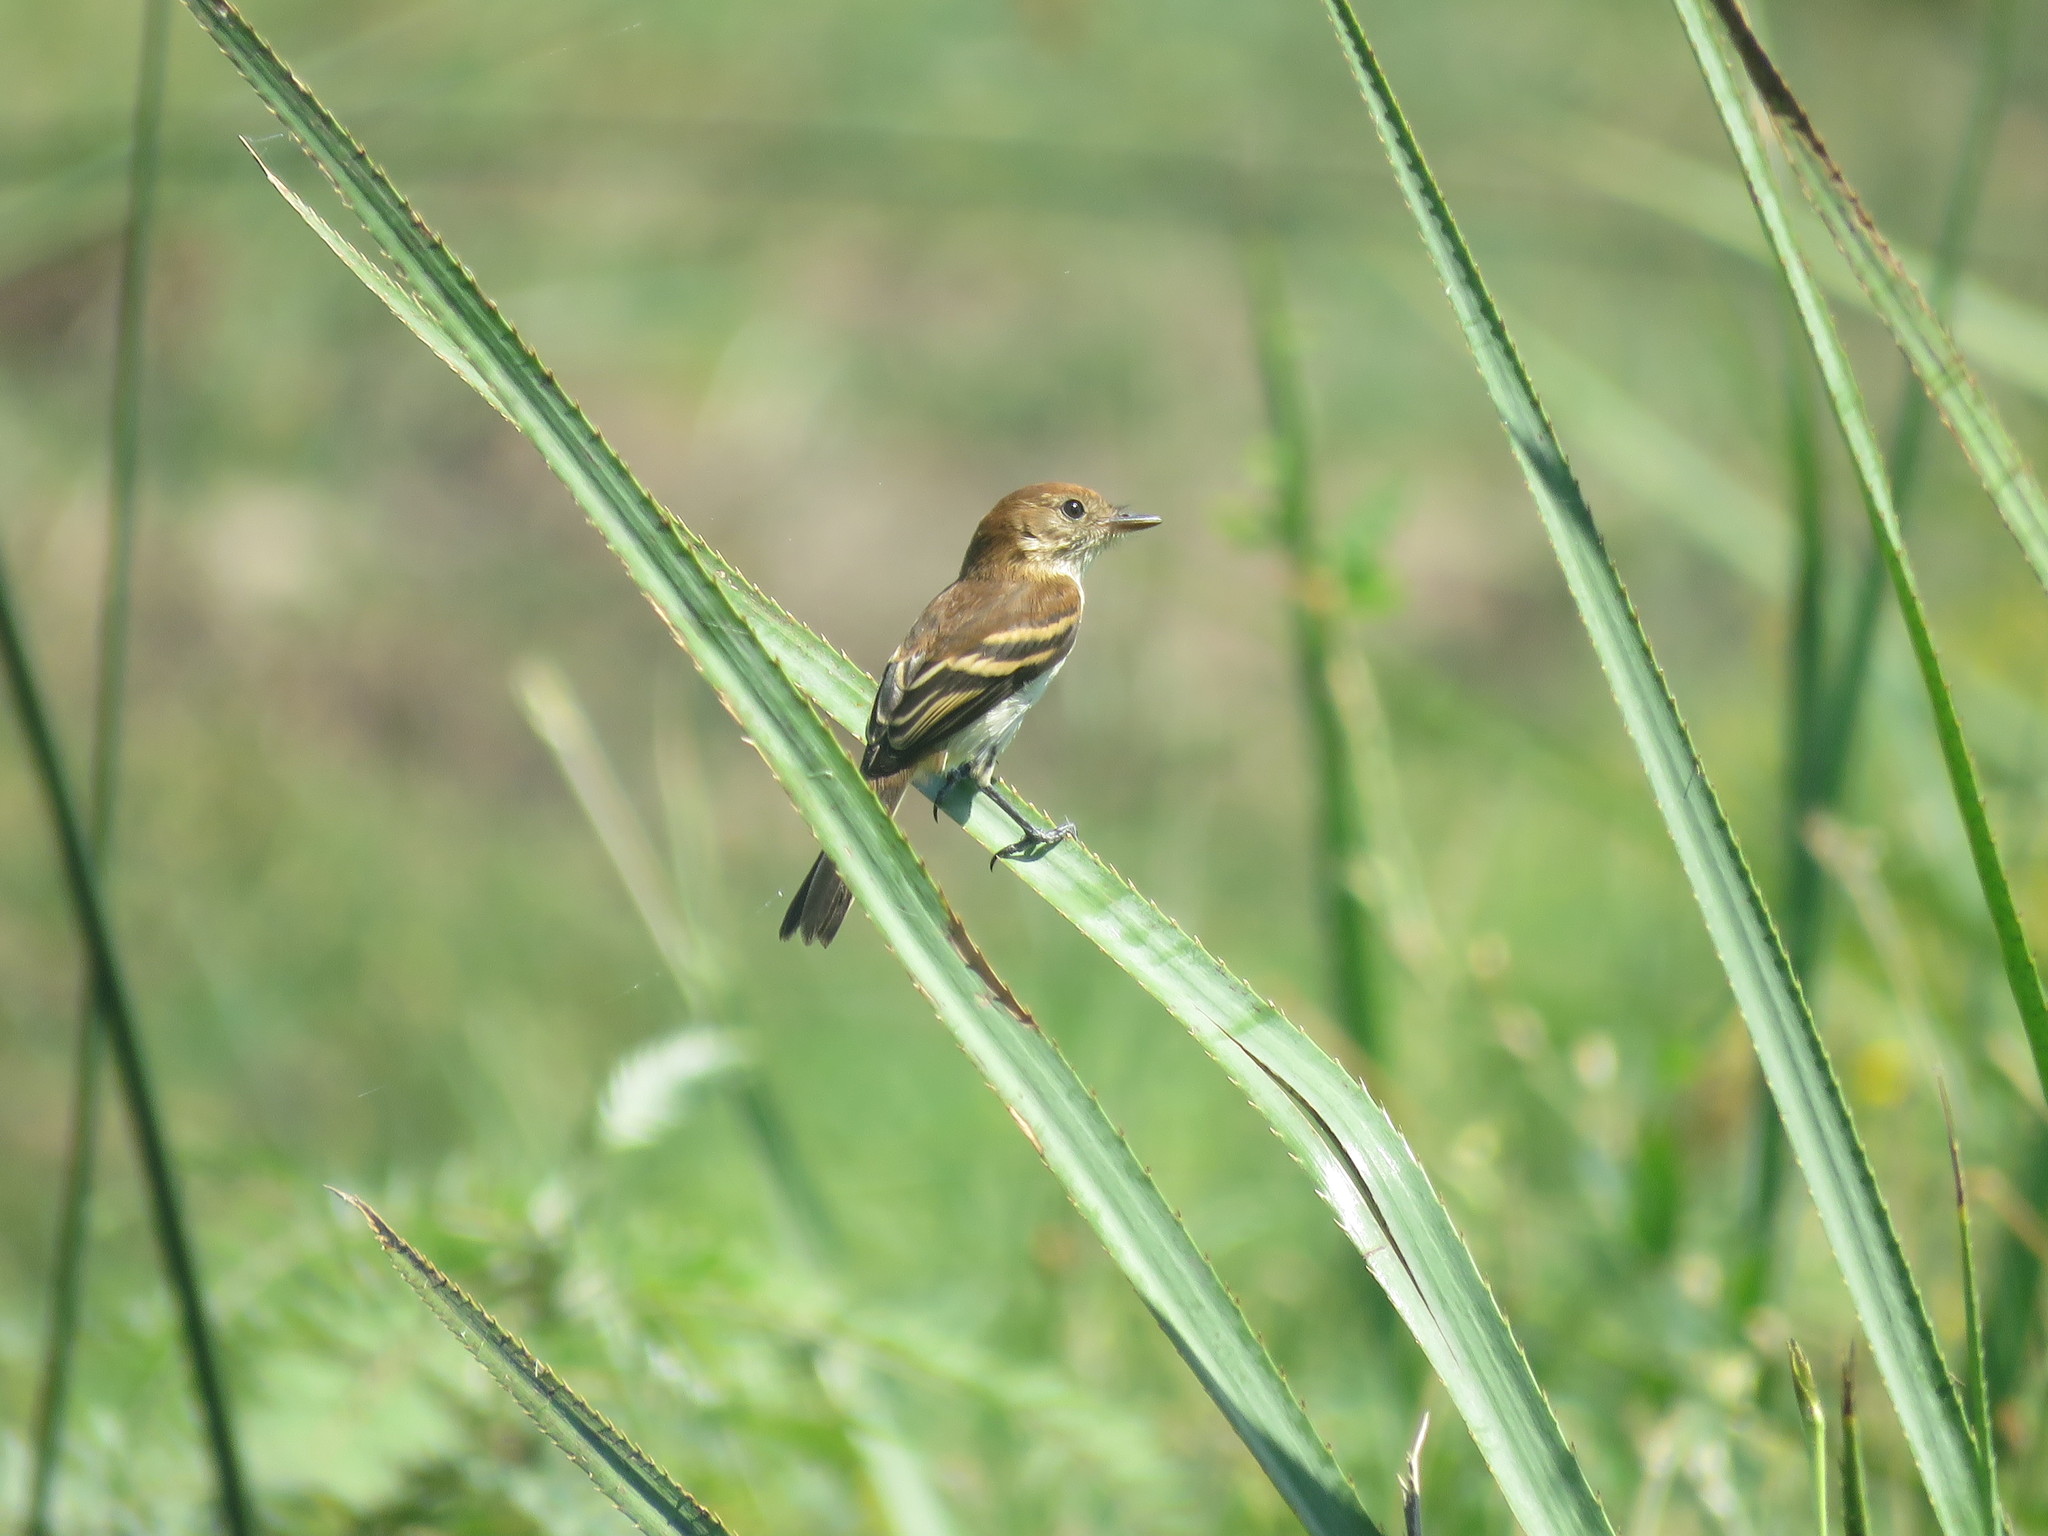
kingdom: Animalia
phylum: Chordata
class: Aves
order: Passeriformes
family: Tyrannidae
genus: Myiophobus
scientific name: Myiophobus fasciatus
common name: Bran-colored flycatcher
